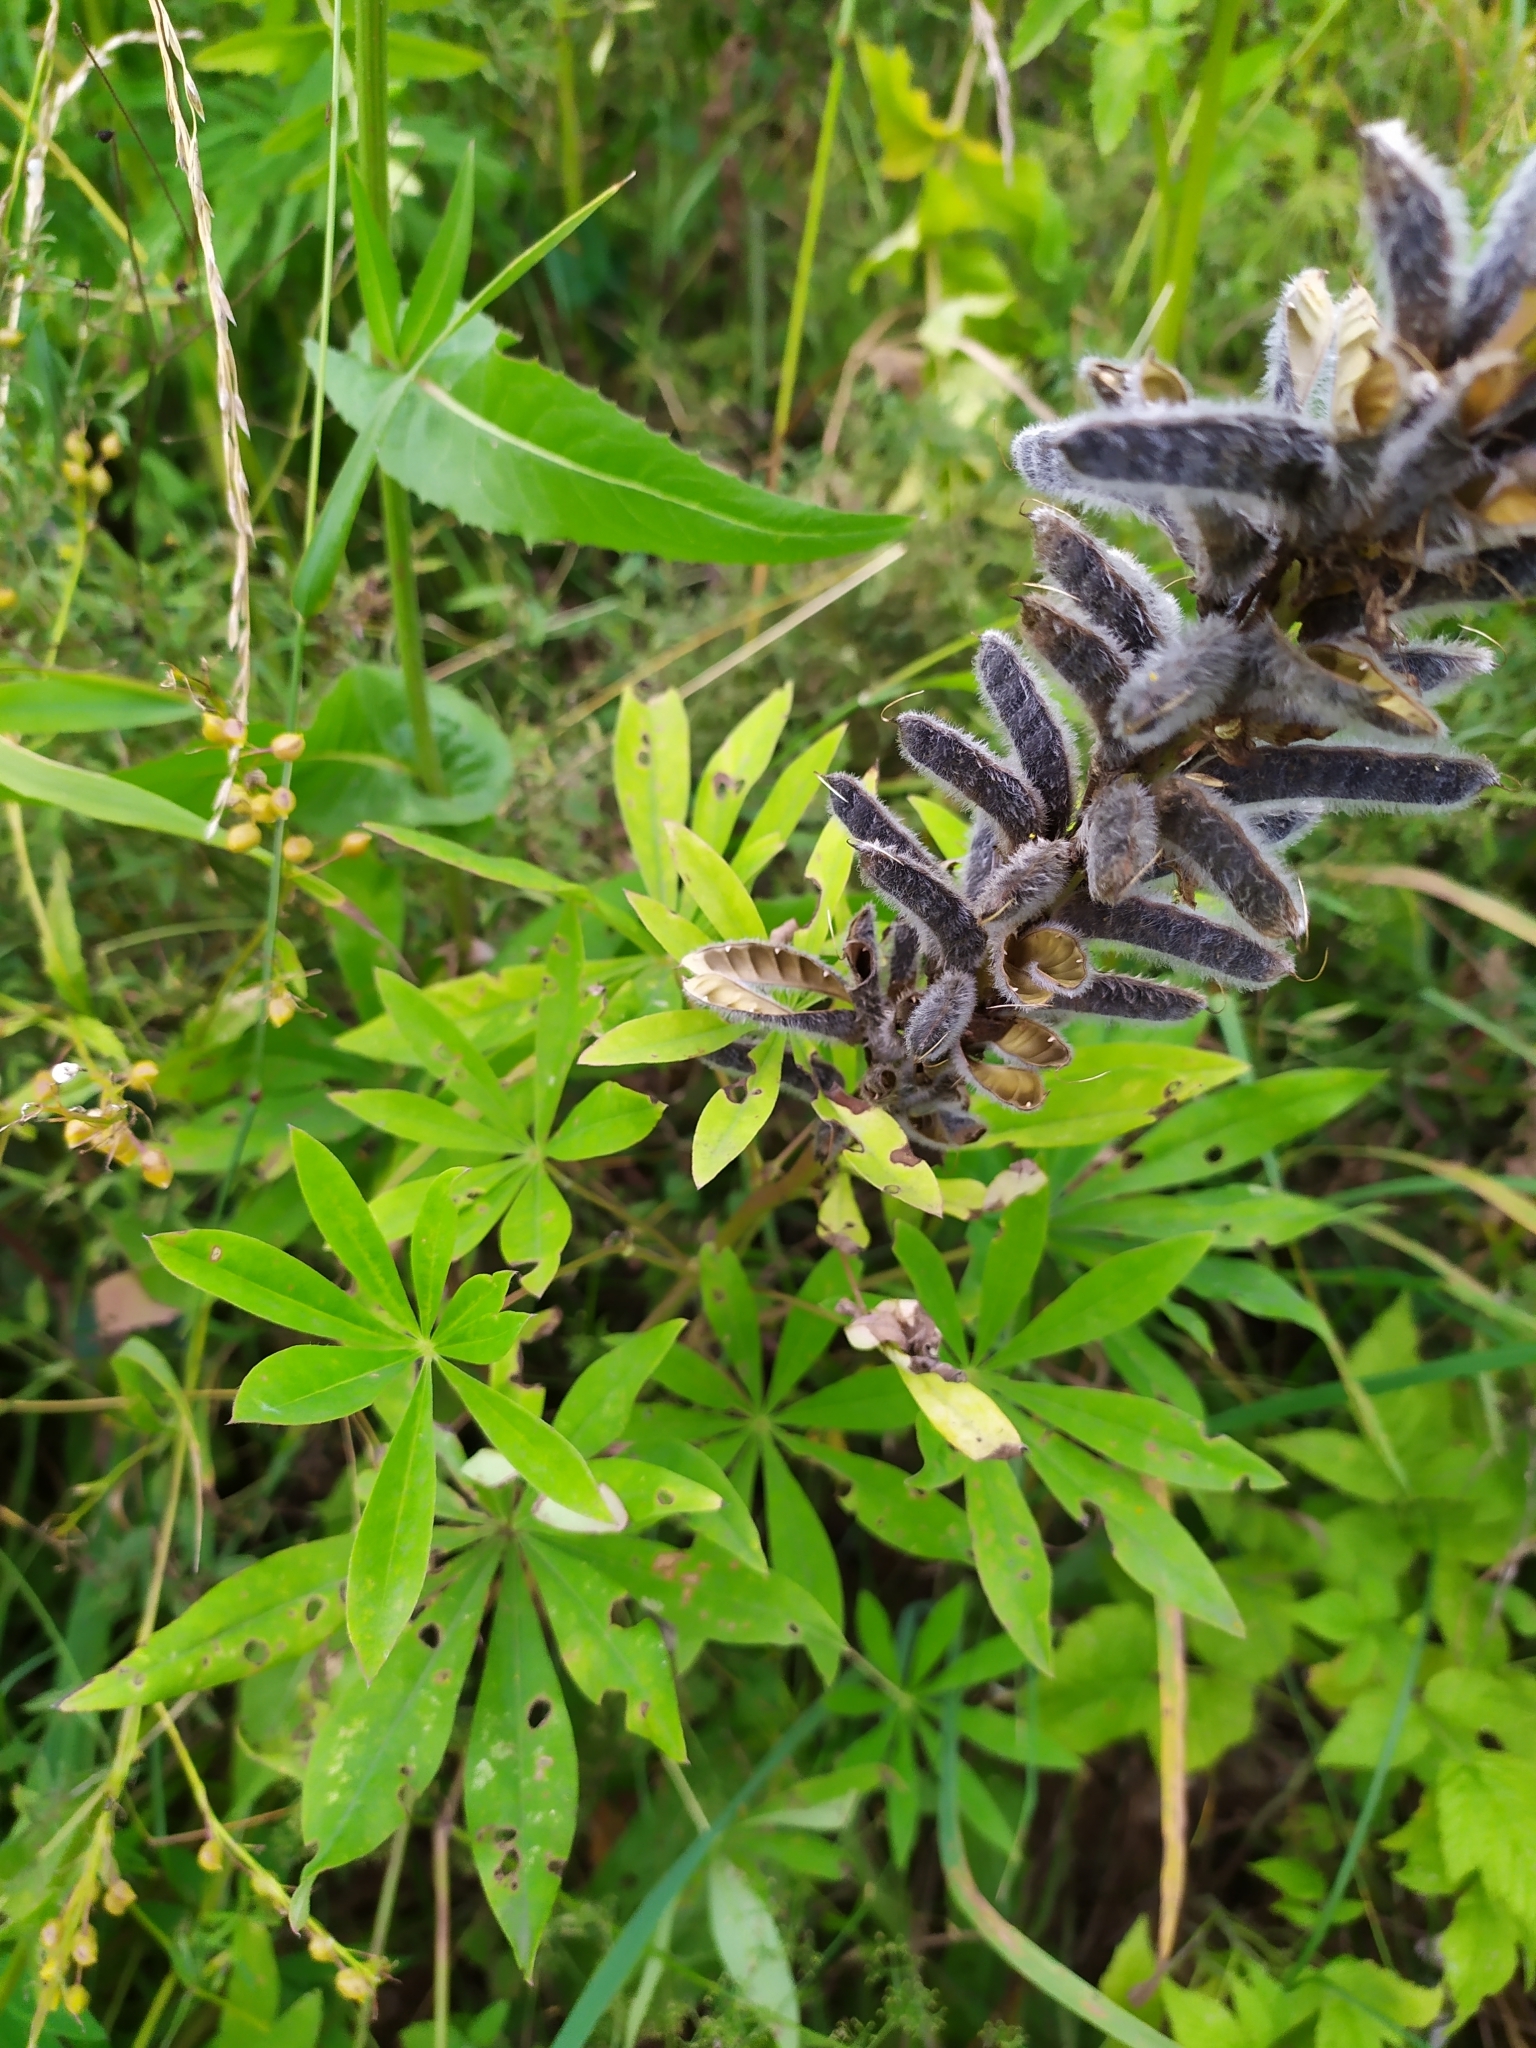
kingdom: Plantae
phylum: Tracheophyta
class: Magnoliopsida
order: Fabales
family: Fabaceae
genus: Lupinus
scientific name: Lupinus polyphyllus
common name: Garden lupin
